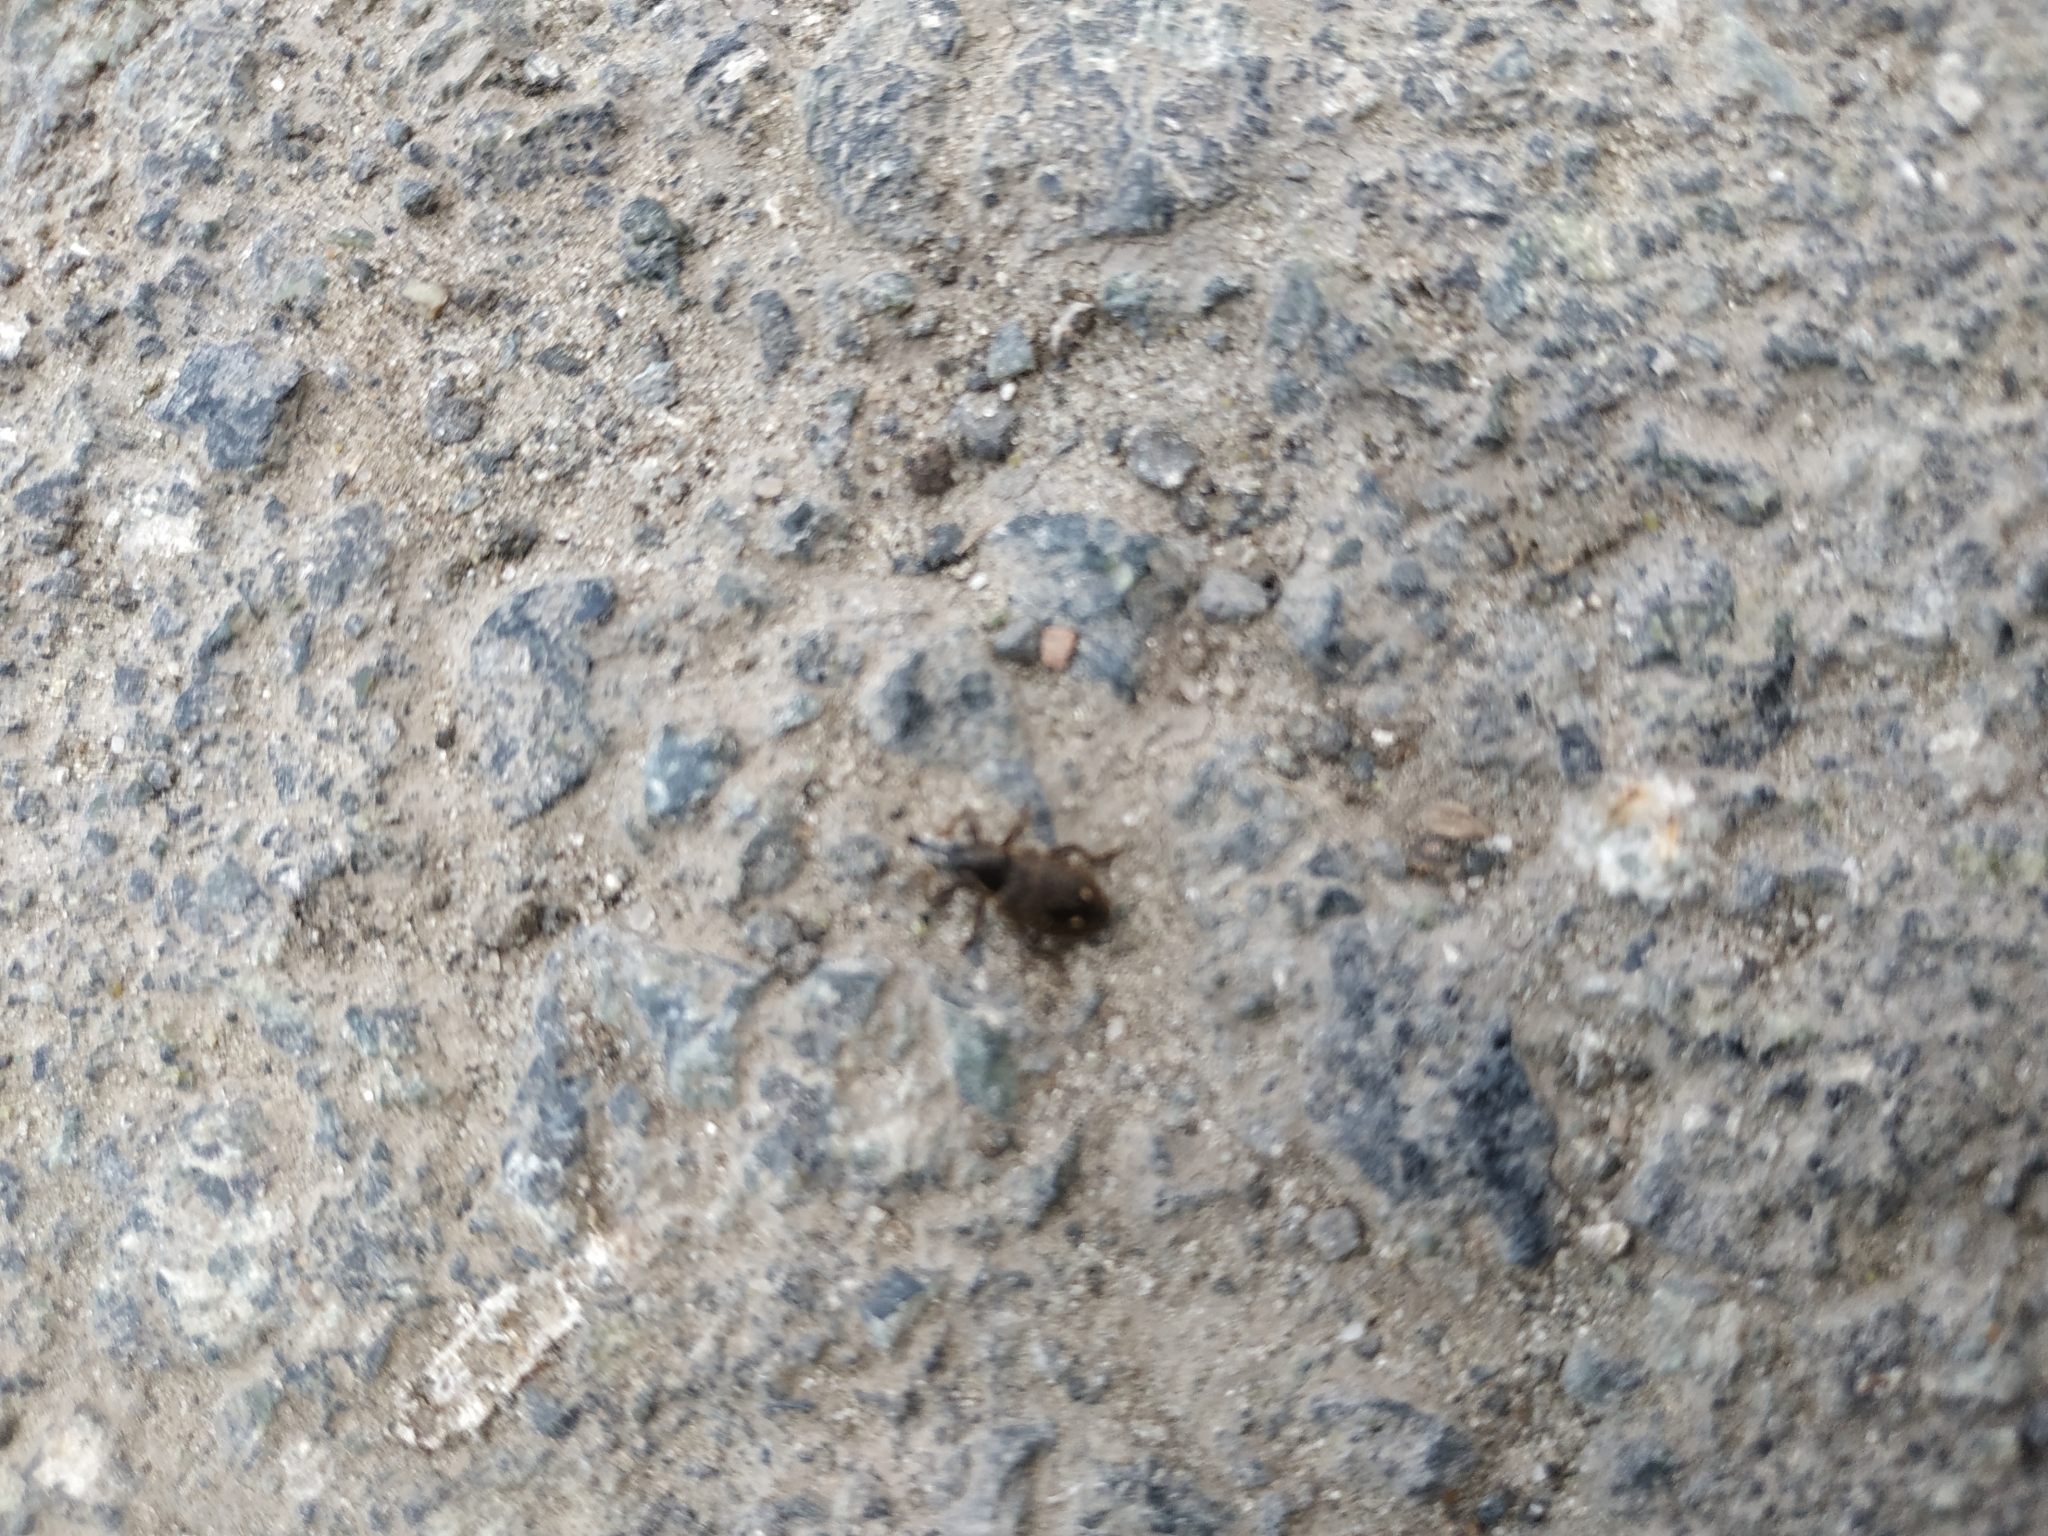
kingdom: Animalia
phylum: Arthropoda
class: Insecta
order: Coleoptera
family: Brachyceridae
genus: Tournotaris
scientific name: Tournotaris bimaculata
